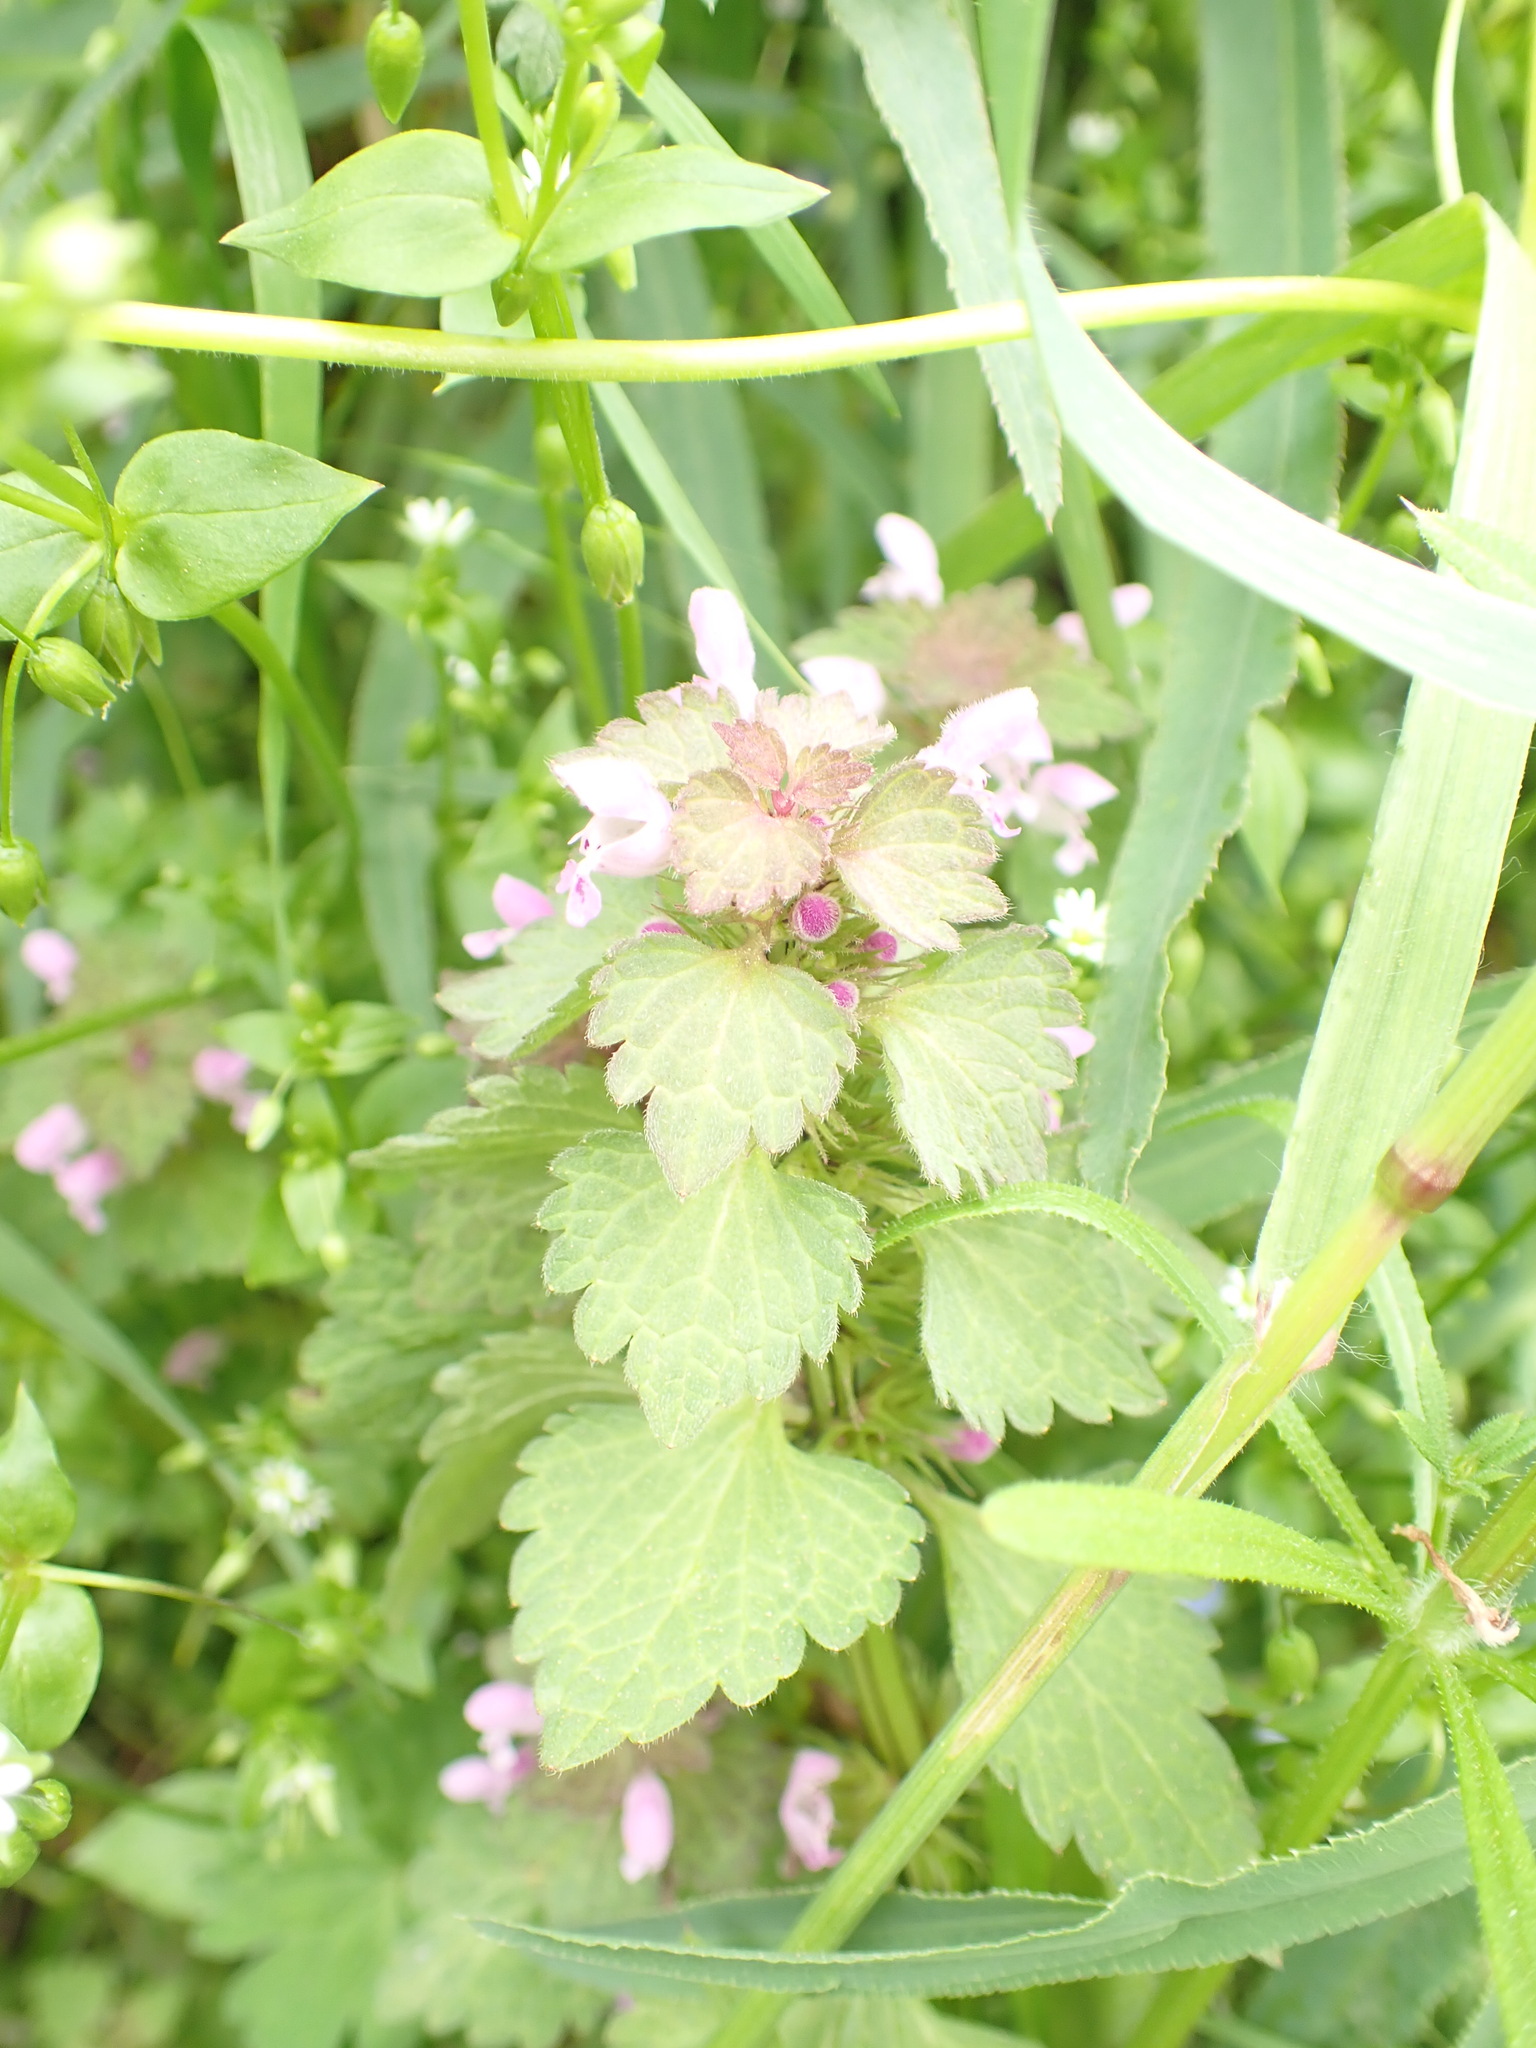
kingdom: Plantae
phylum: Tracheophyta
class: Magnoliopsida
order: Lamiales
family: Lamiaceae
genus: Lamium
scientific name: Lamium purpureum
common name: Red dead-nettle
